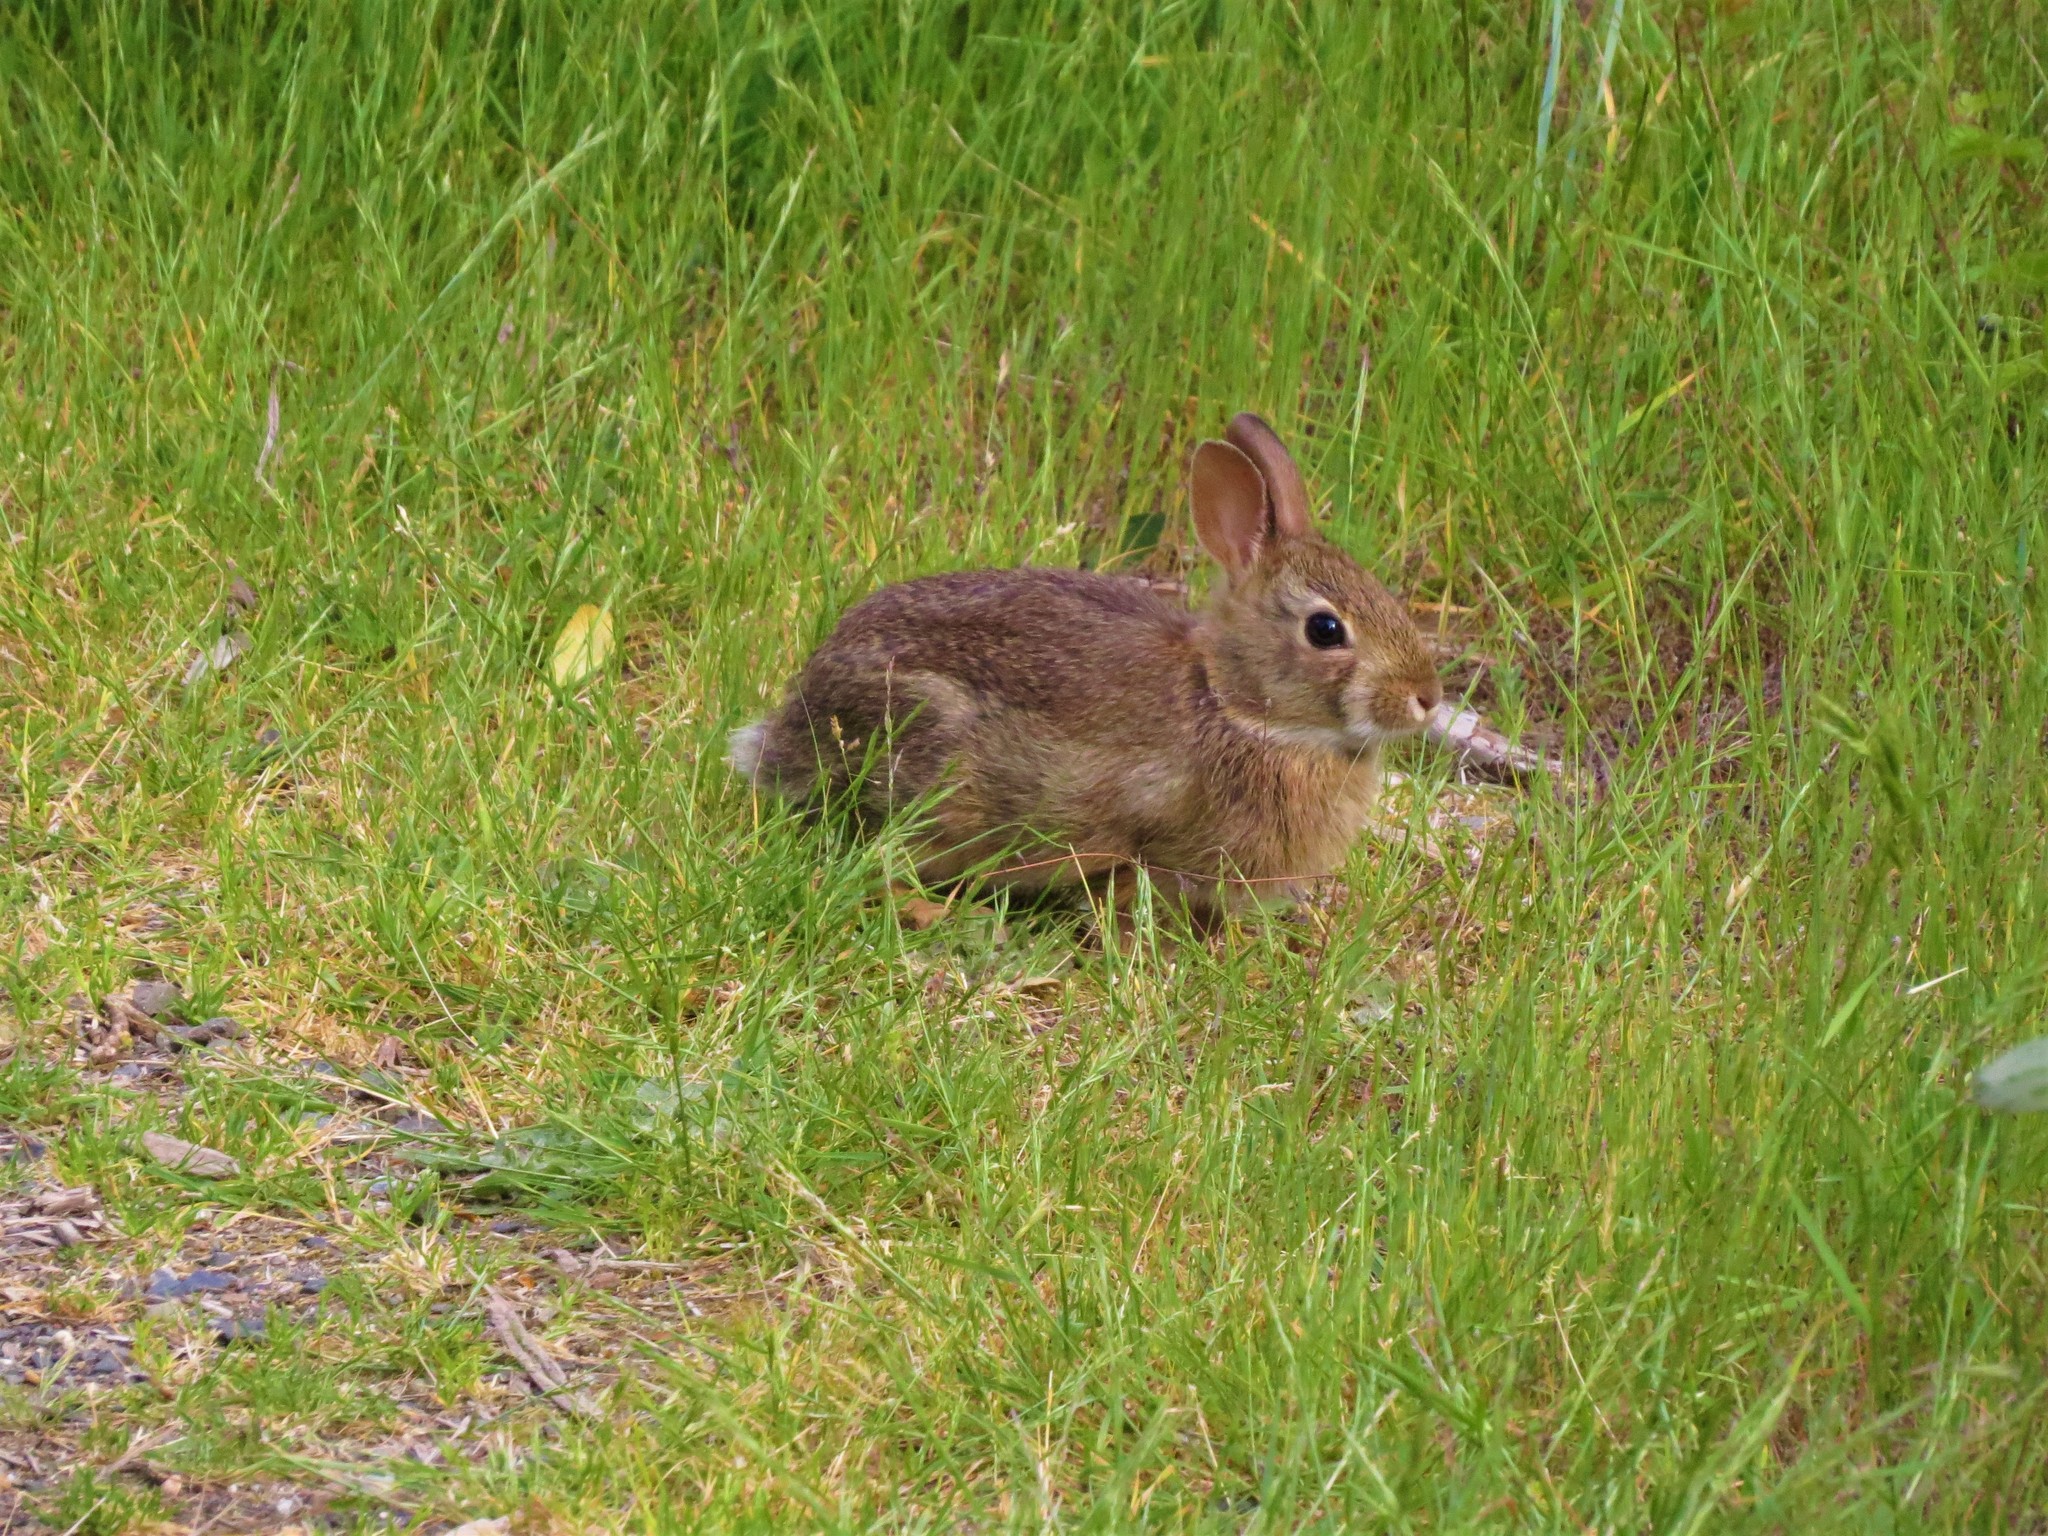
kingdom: Animalia
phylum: Chordata
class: Mammalia
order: Lagomorpha
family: Leporidae
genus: Sylvilagus
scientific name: Sylvilagus floridanus
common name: Eastern cottontail
